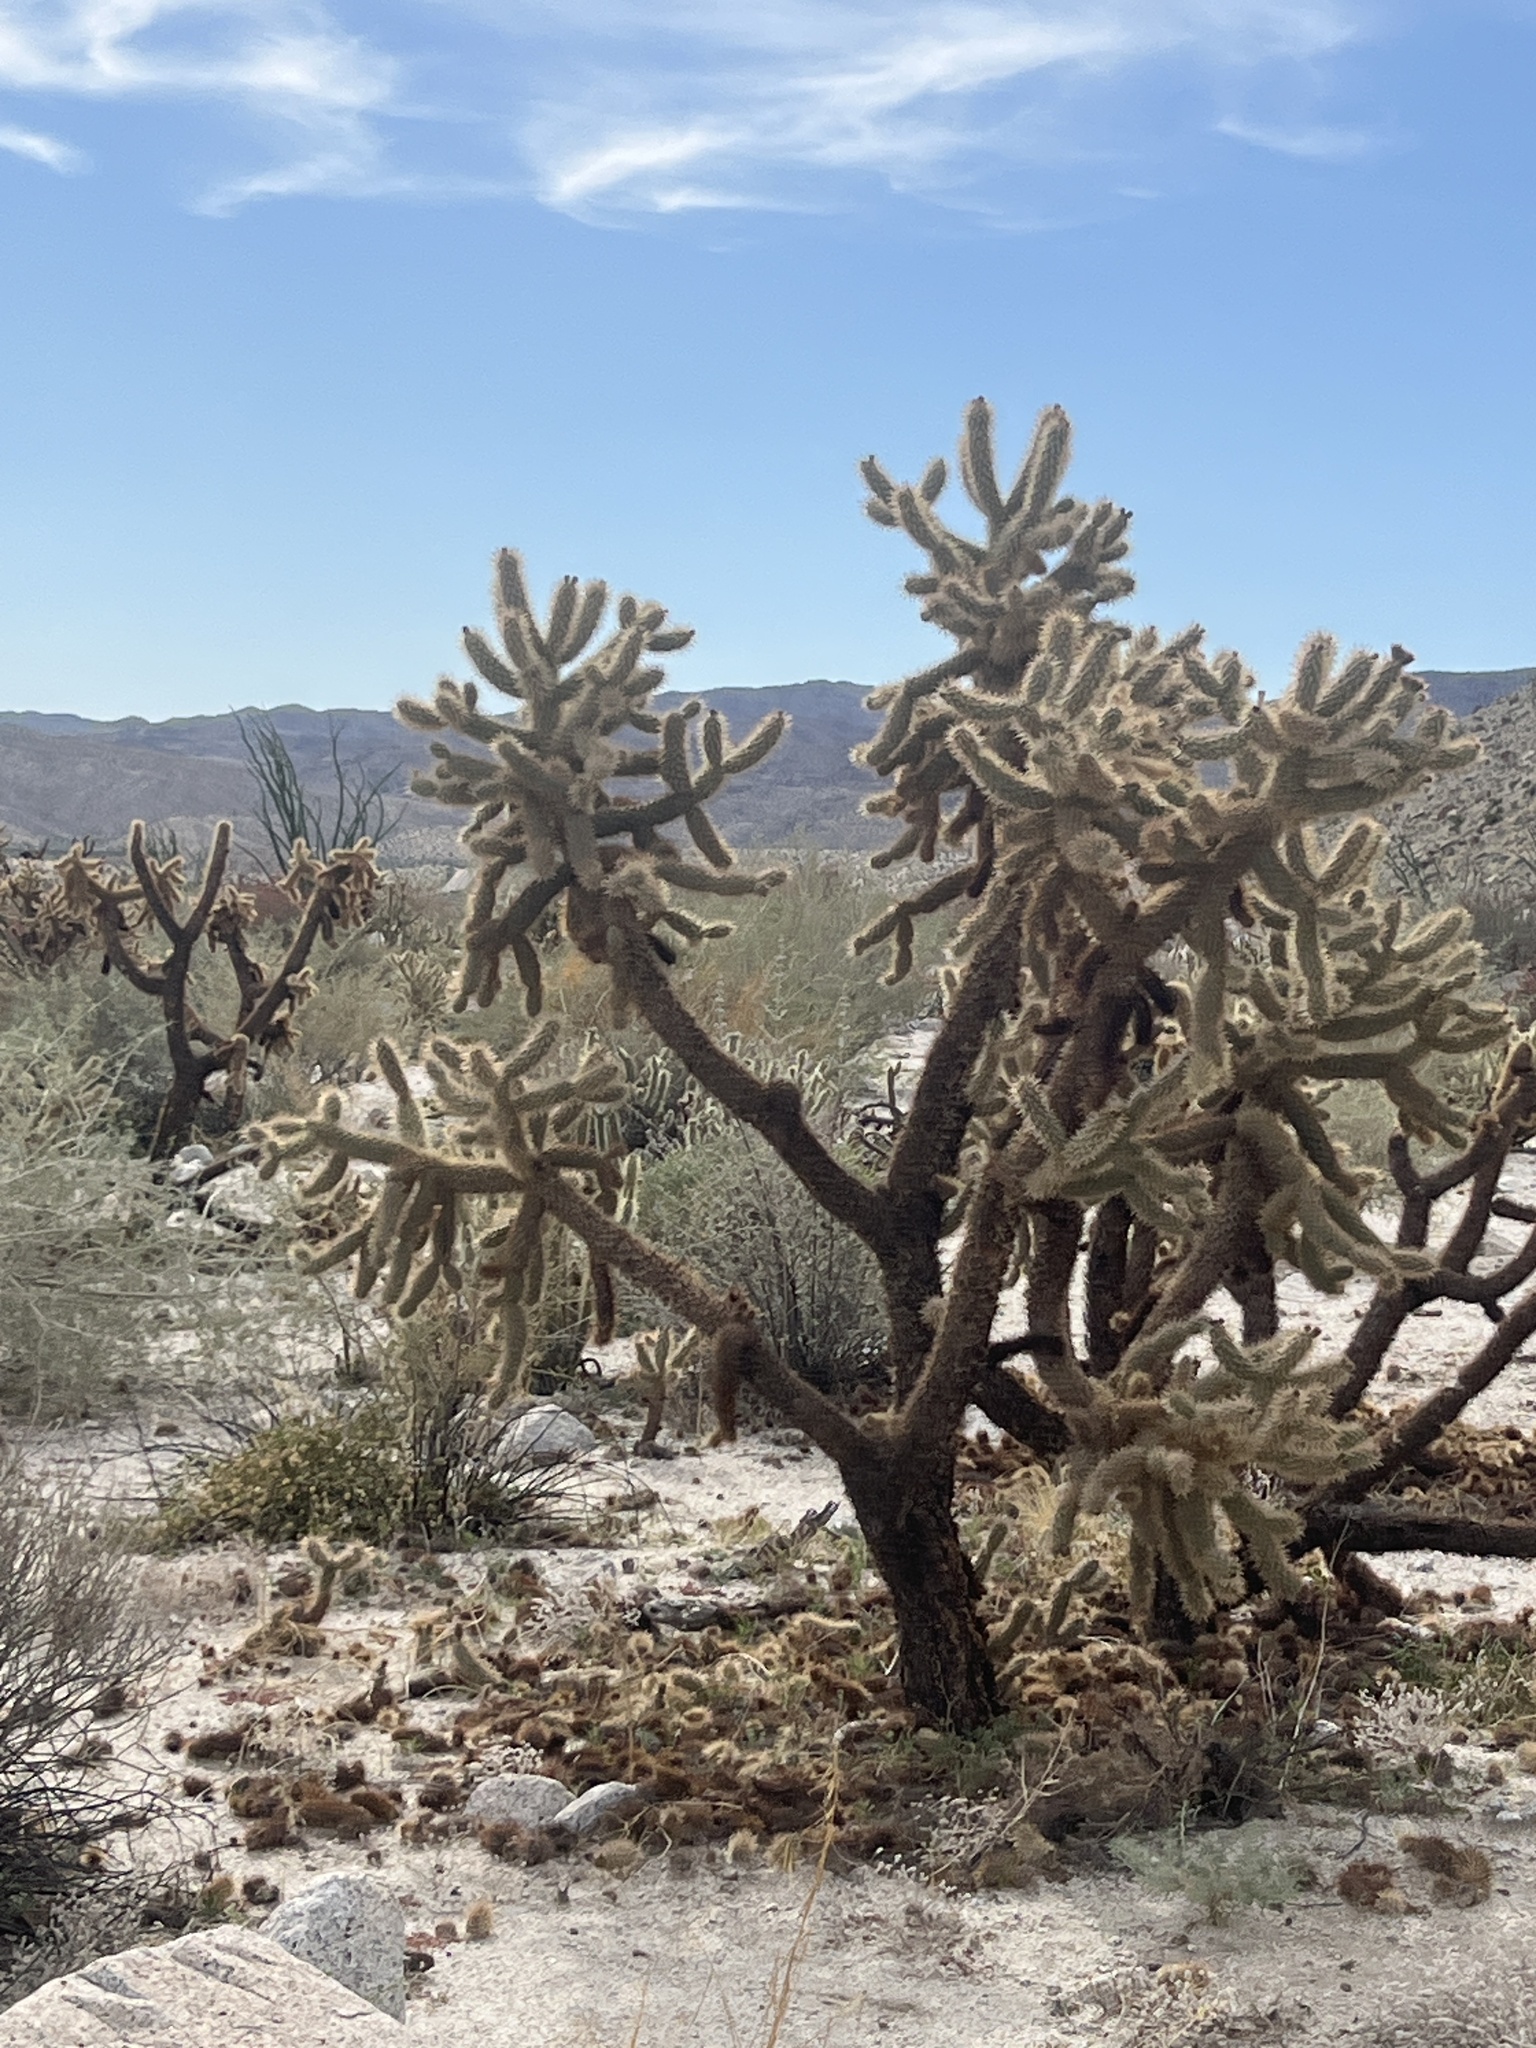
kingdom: Plantae
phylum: Tracheophyta
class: Magnoliopsida
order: Caryophyllales
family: Cactaceae
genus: Cylindropuntia
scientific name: Cylindropuntia fosbergii
